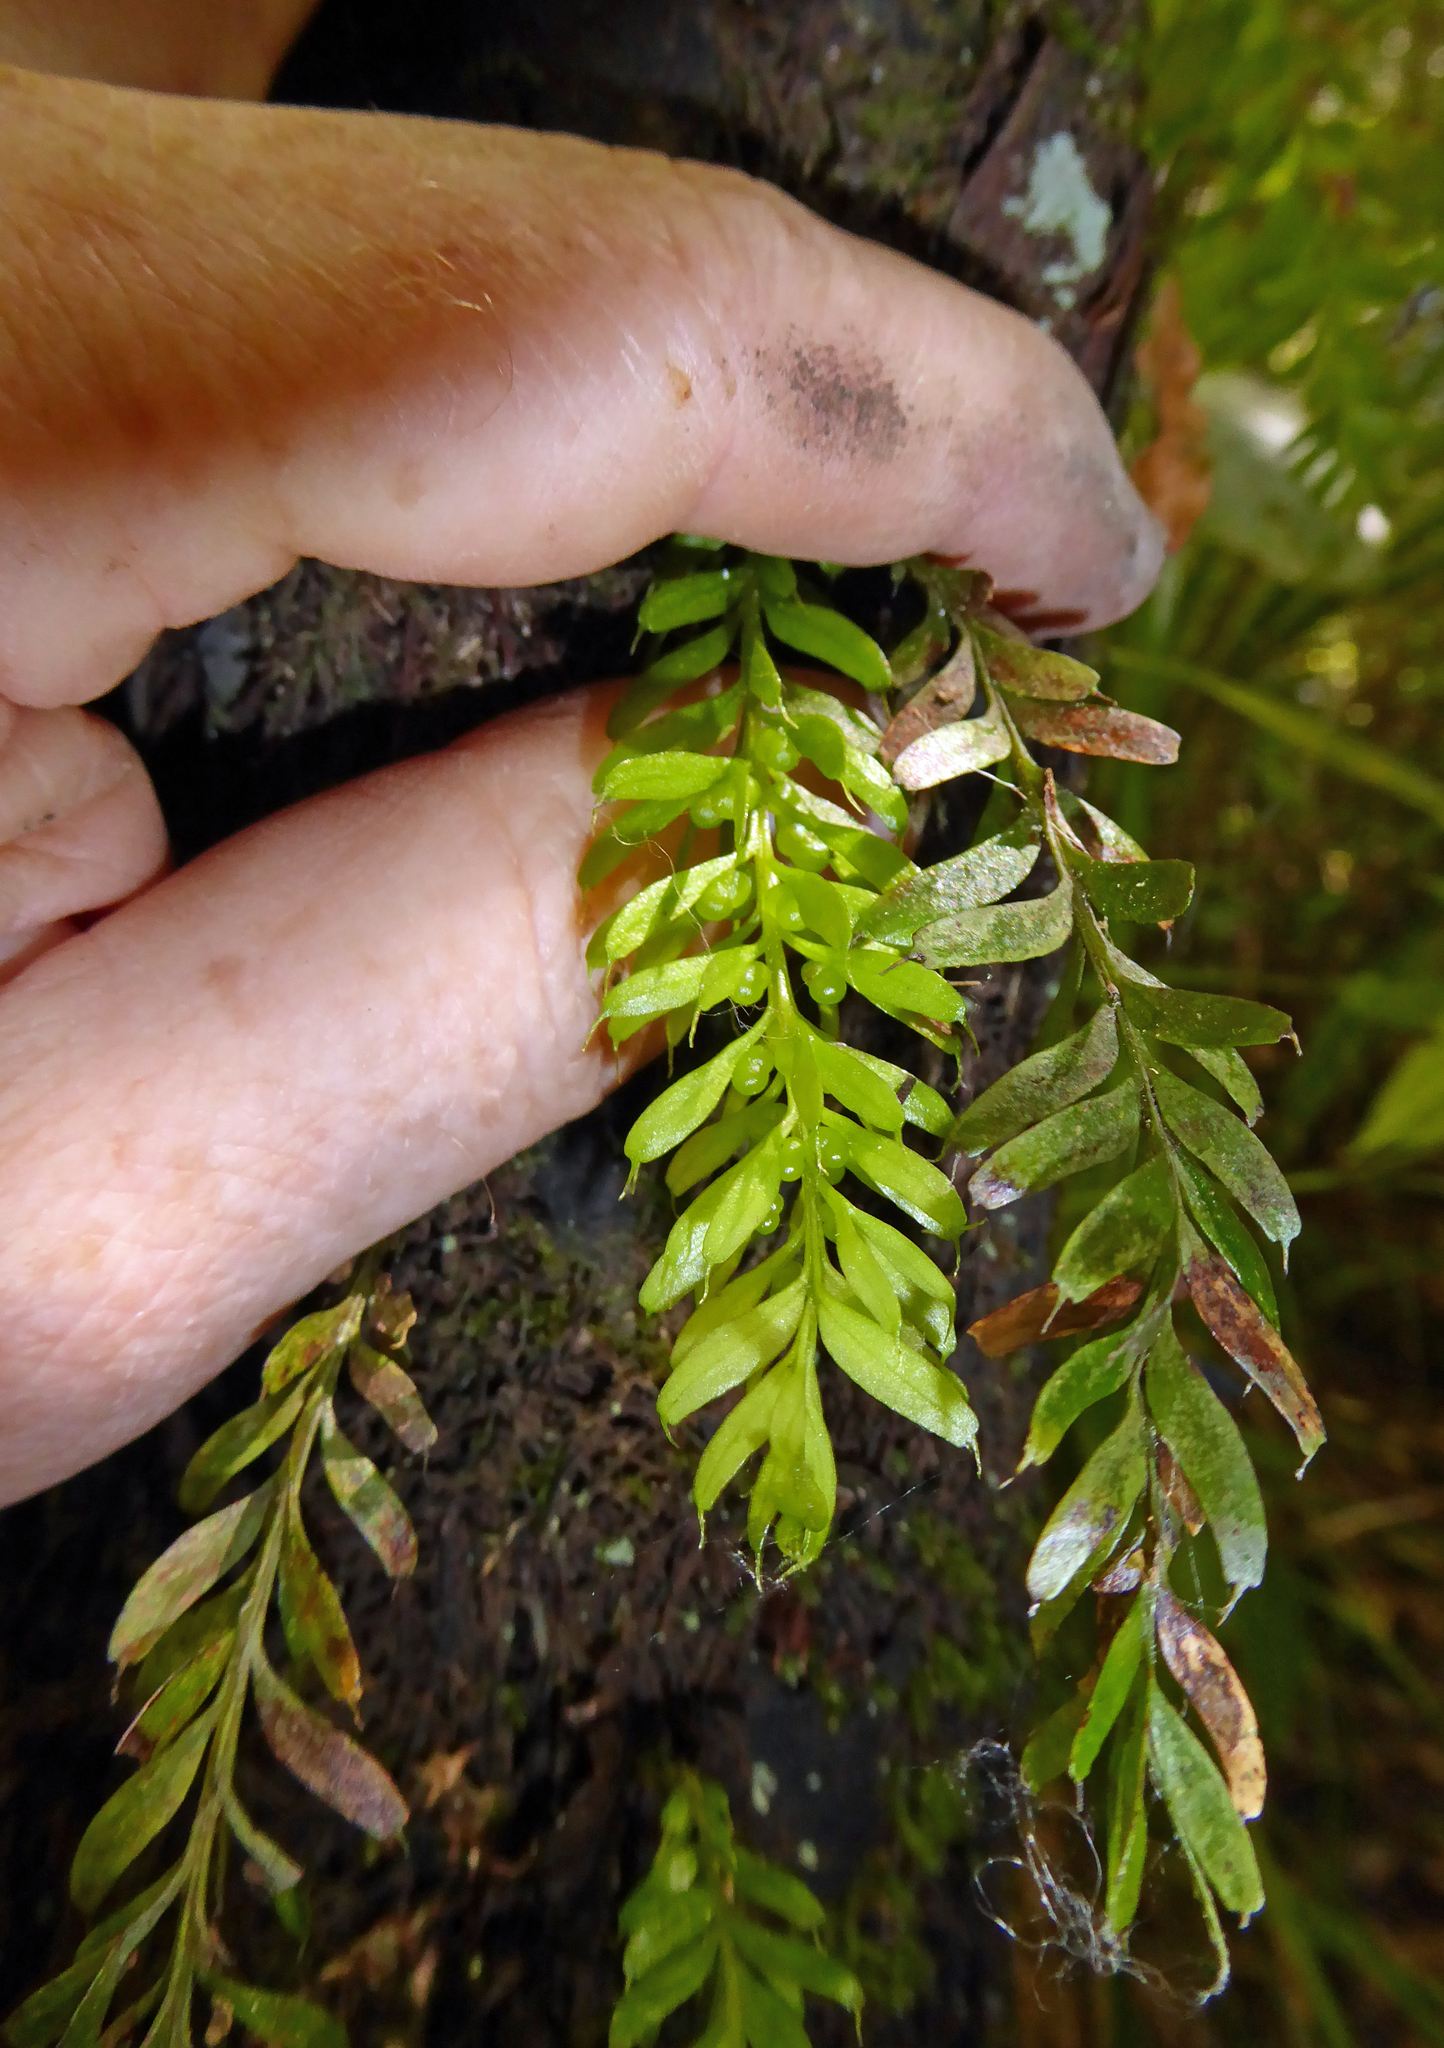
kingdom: Plantae
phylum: Tracheophyta
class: Polypodiopsida
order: Psilotales
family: Psilotaceae
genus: Tmesipteris
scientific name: Tmesipteris sigmatifolia
